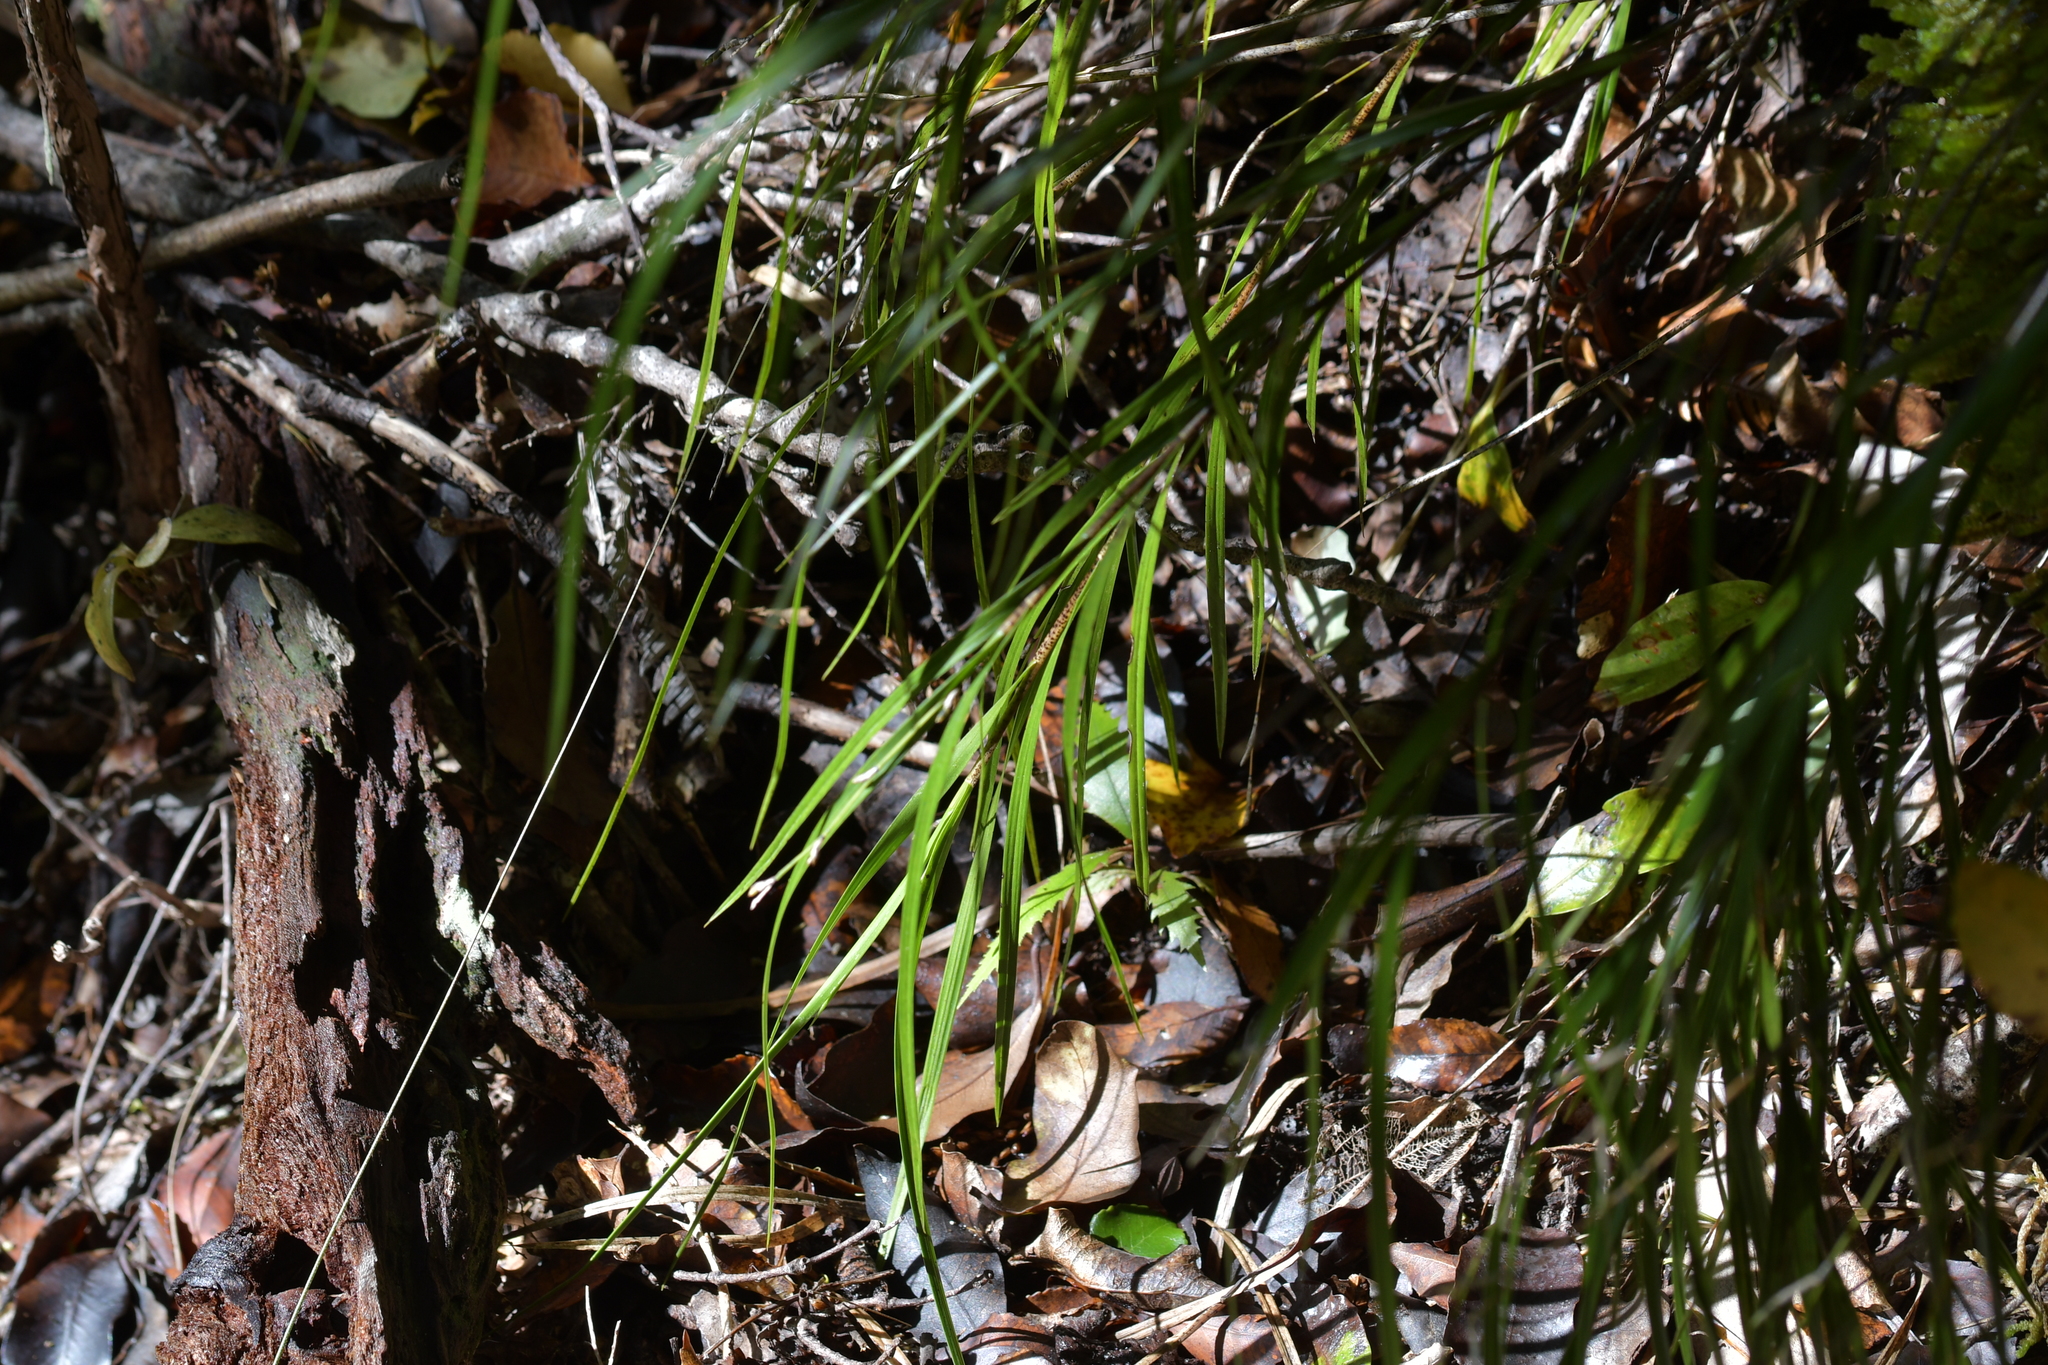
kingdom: Plantae
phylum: Tracheophyta
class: Liliopsida
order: Asparagales
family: Orchidaceae
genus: Earina
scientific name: Earina mucronata
